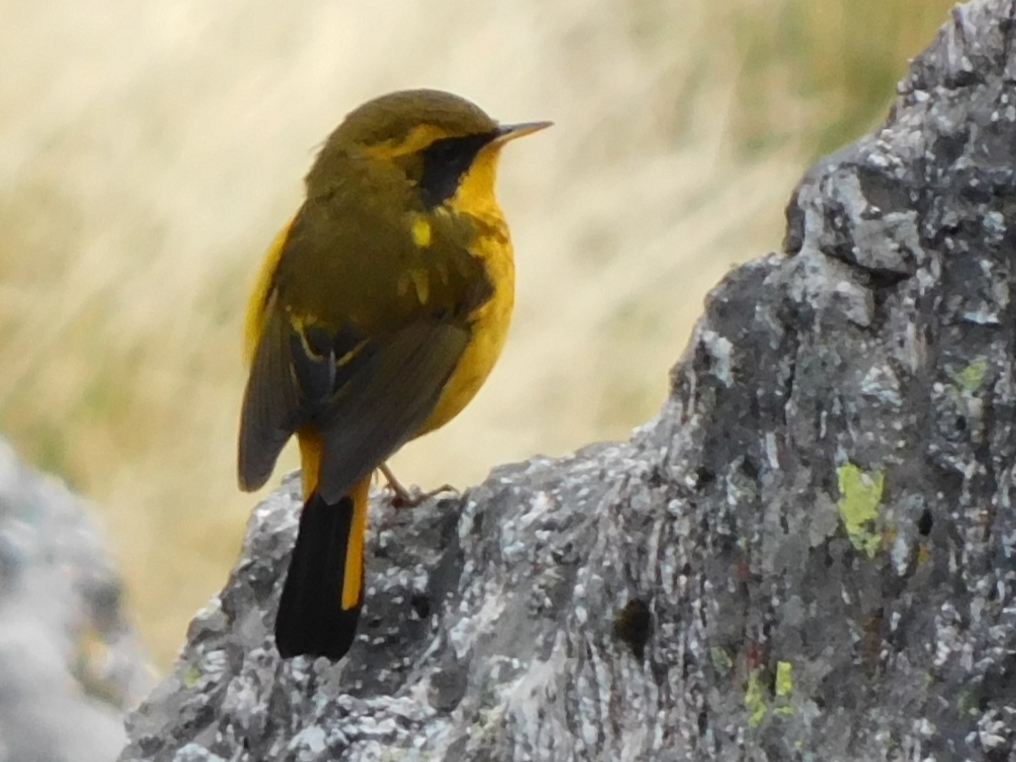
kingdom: Animalia
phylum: Chordata
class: Aves
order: Passeriformes
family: Muscicapidae
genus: Tarsiger
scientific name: Tarsiger chrysaeus
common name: Golden bush robin
